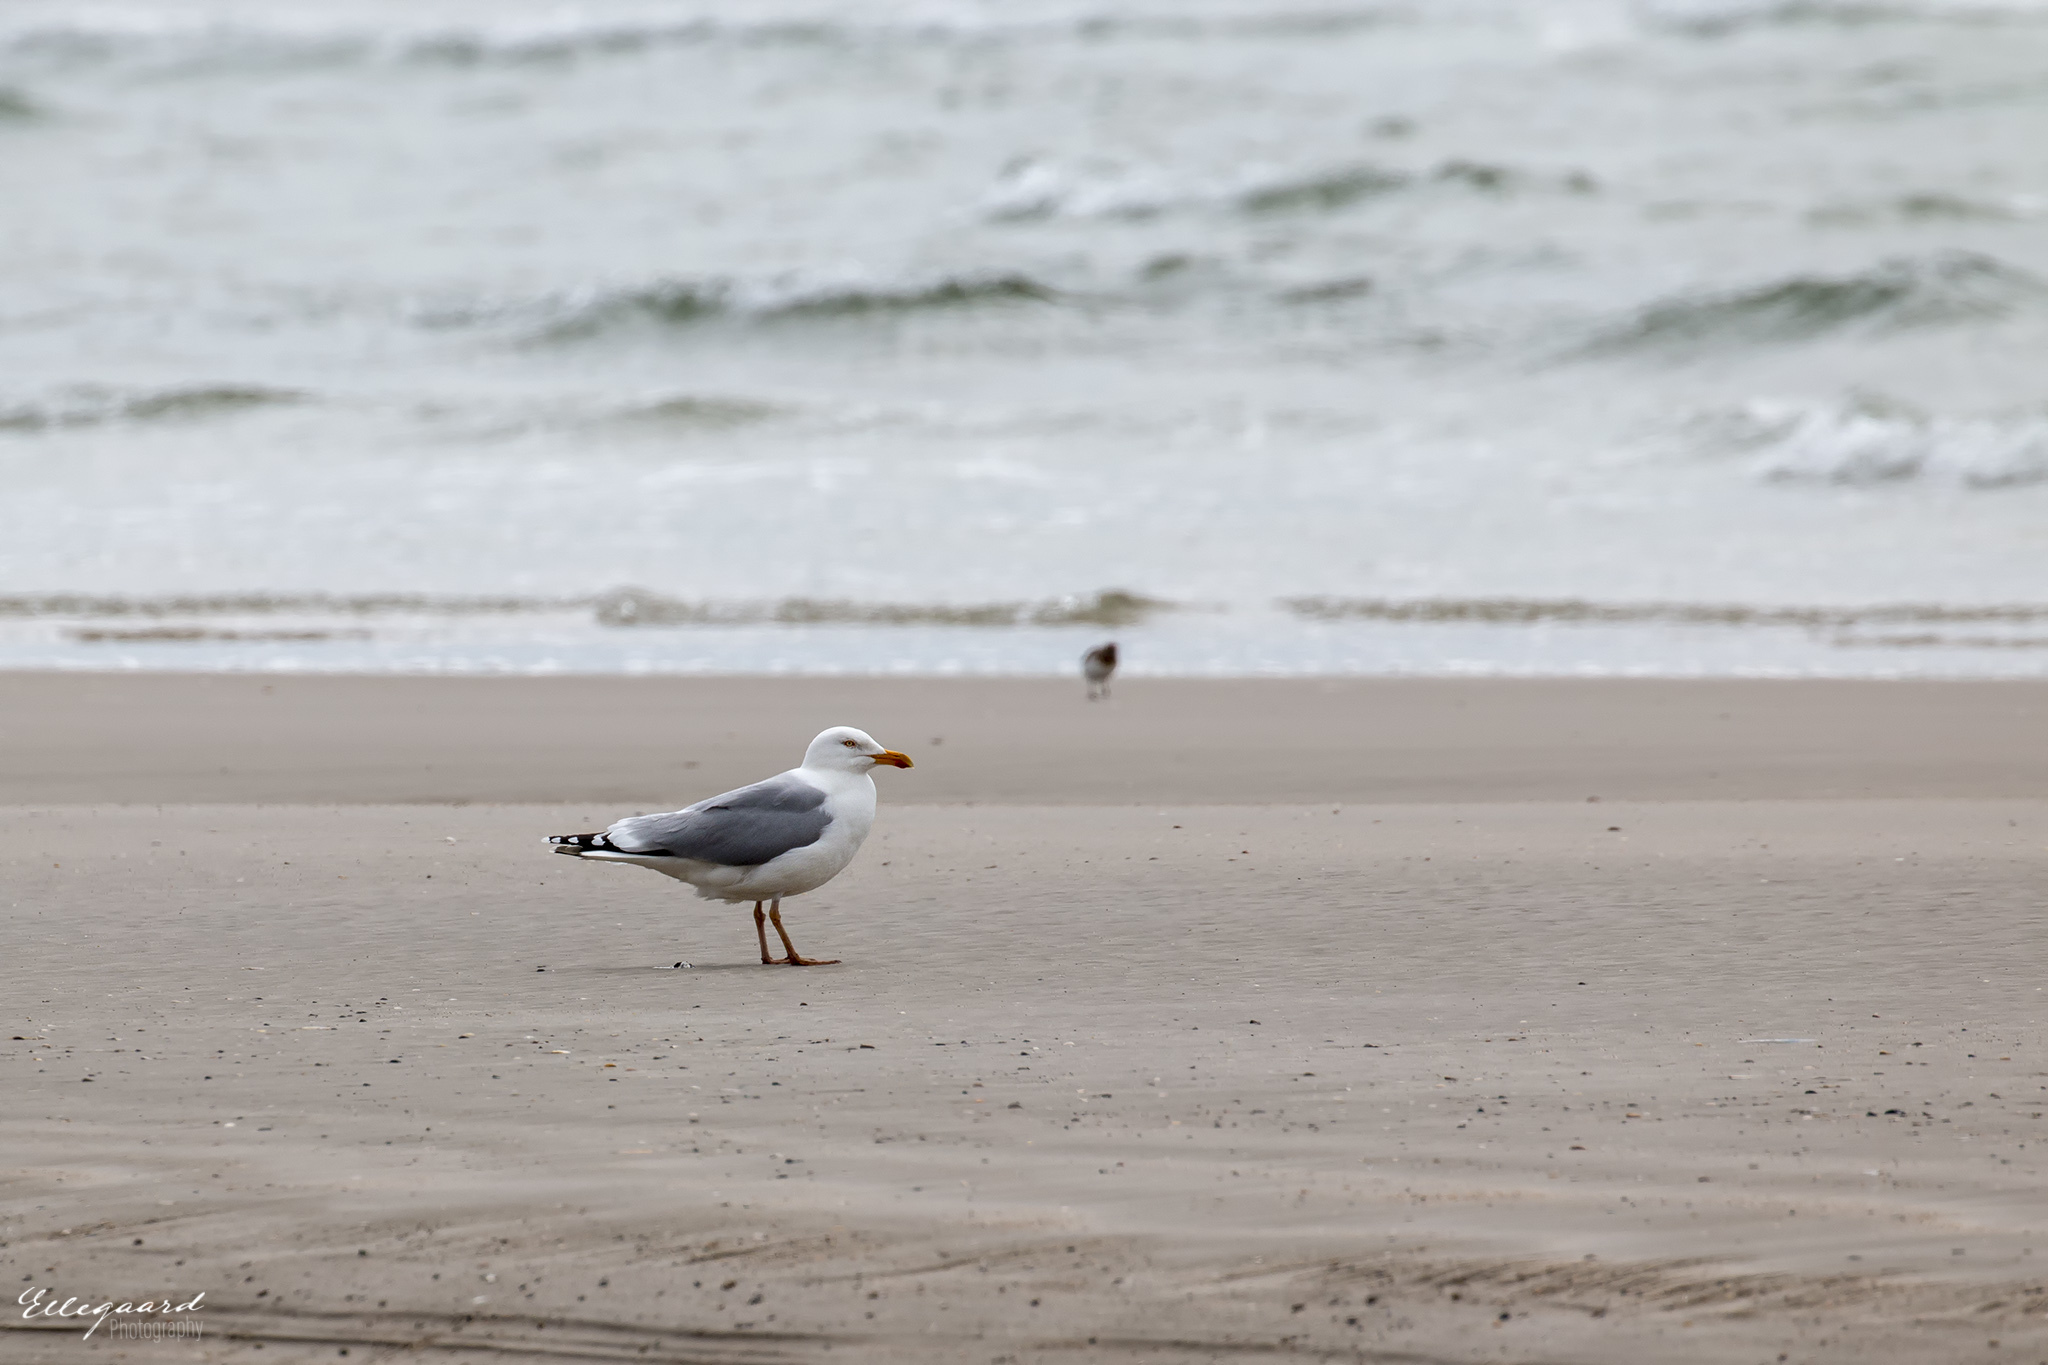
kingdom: Animalia
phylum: Chordata
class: Aves
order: Charadriiformes
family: Laridae
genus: Larus
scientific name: Larus argentatus
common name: Herring gull
